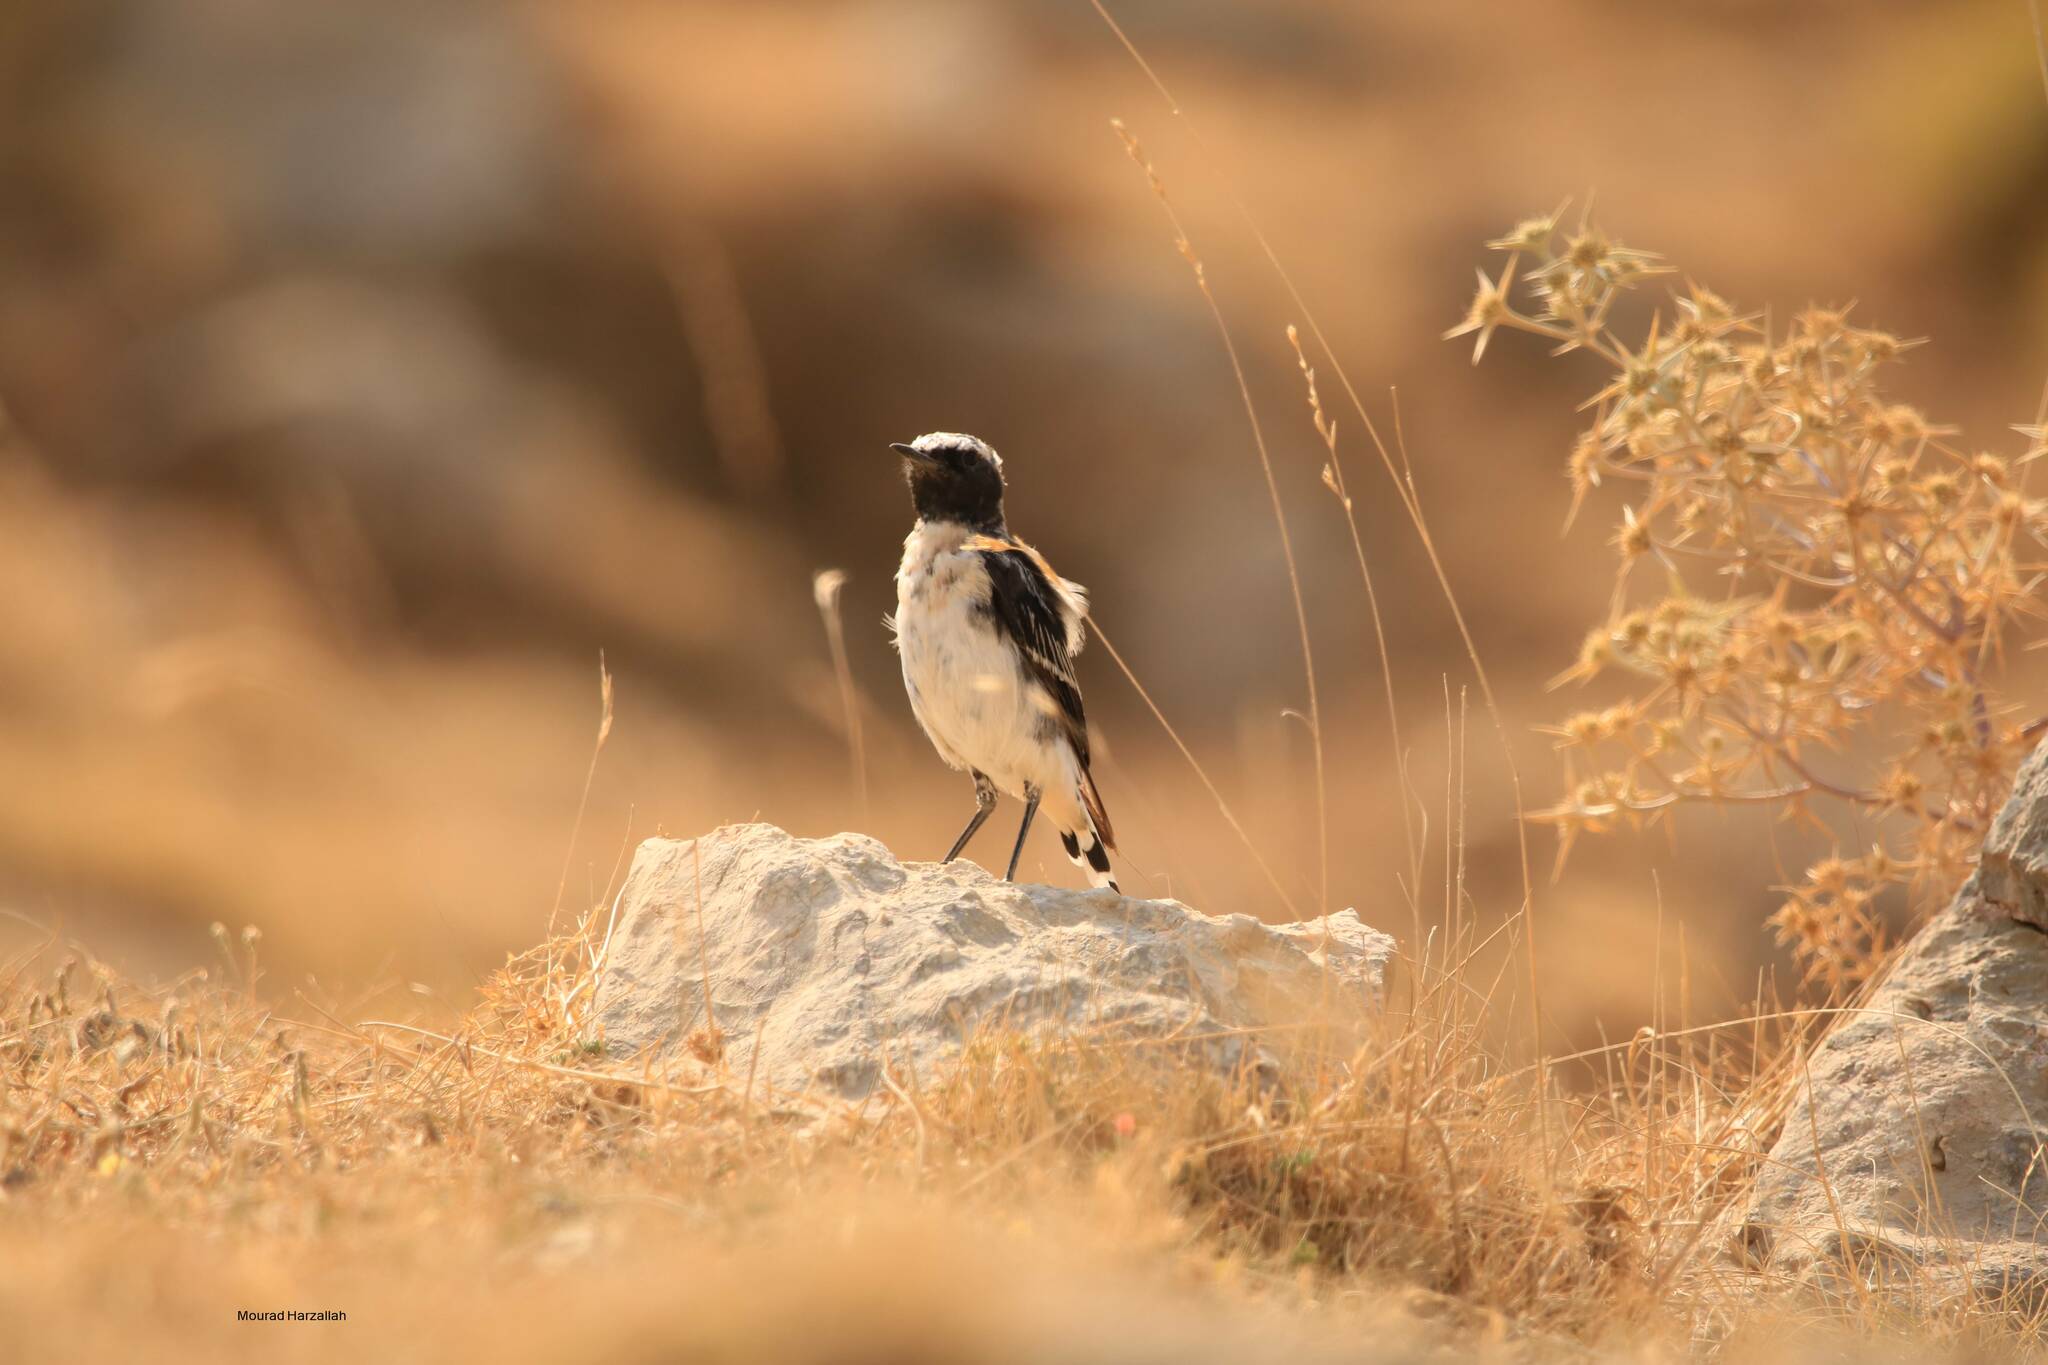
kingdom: Animalia
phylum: Chordata
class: Aves
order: Passeriformes
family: Muscicapidae
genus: Oenanthe
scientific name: Oenanthe oenanthe
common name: Northern wheatear
